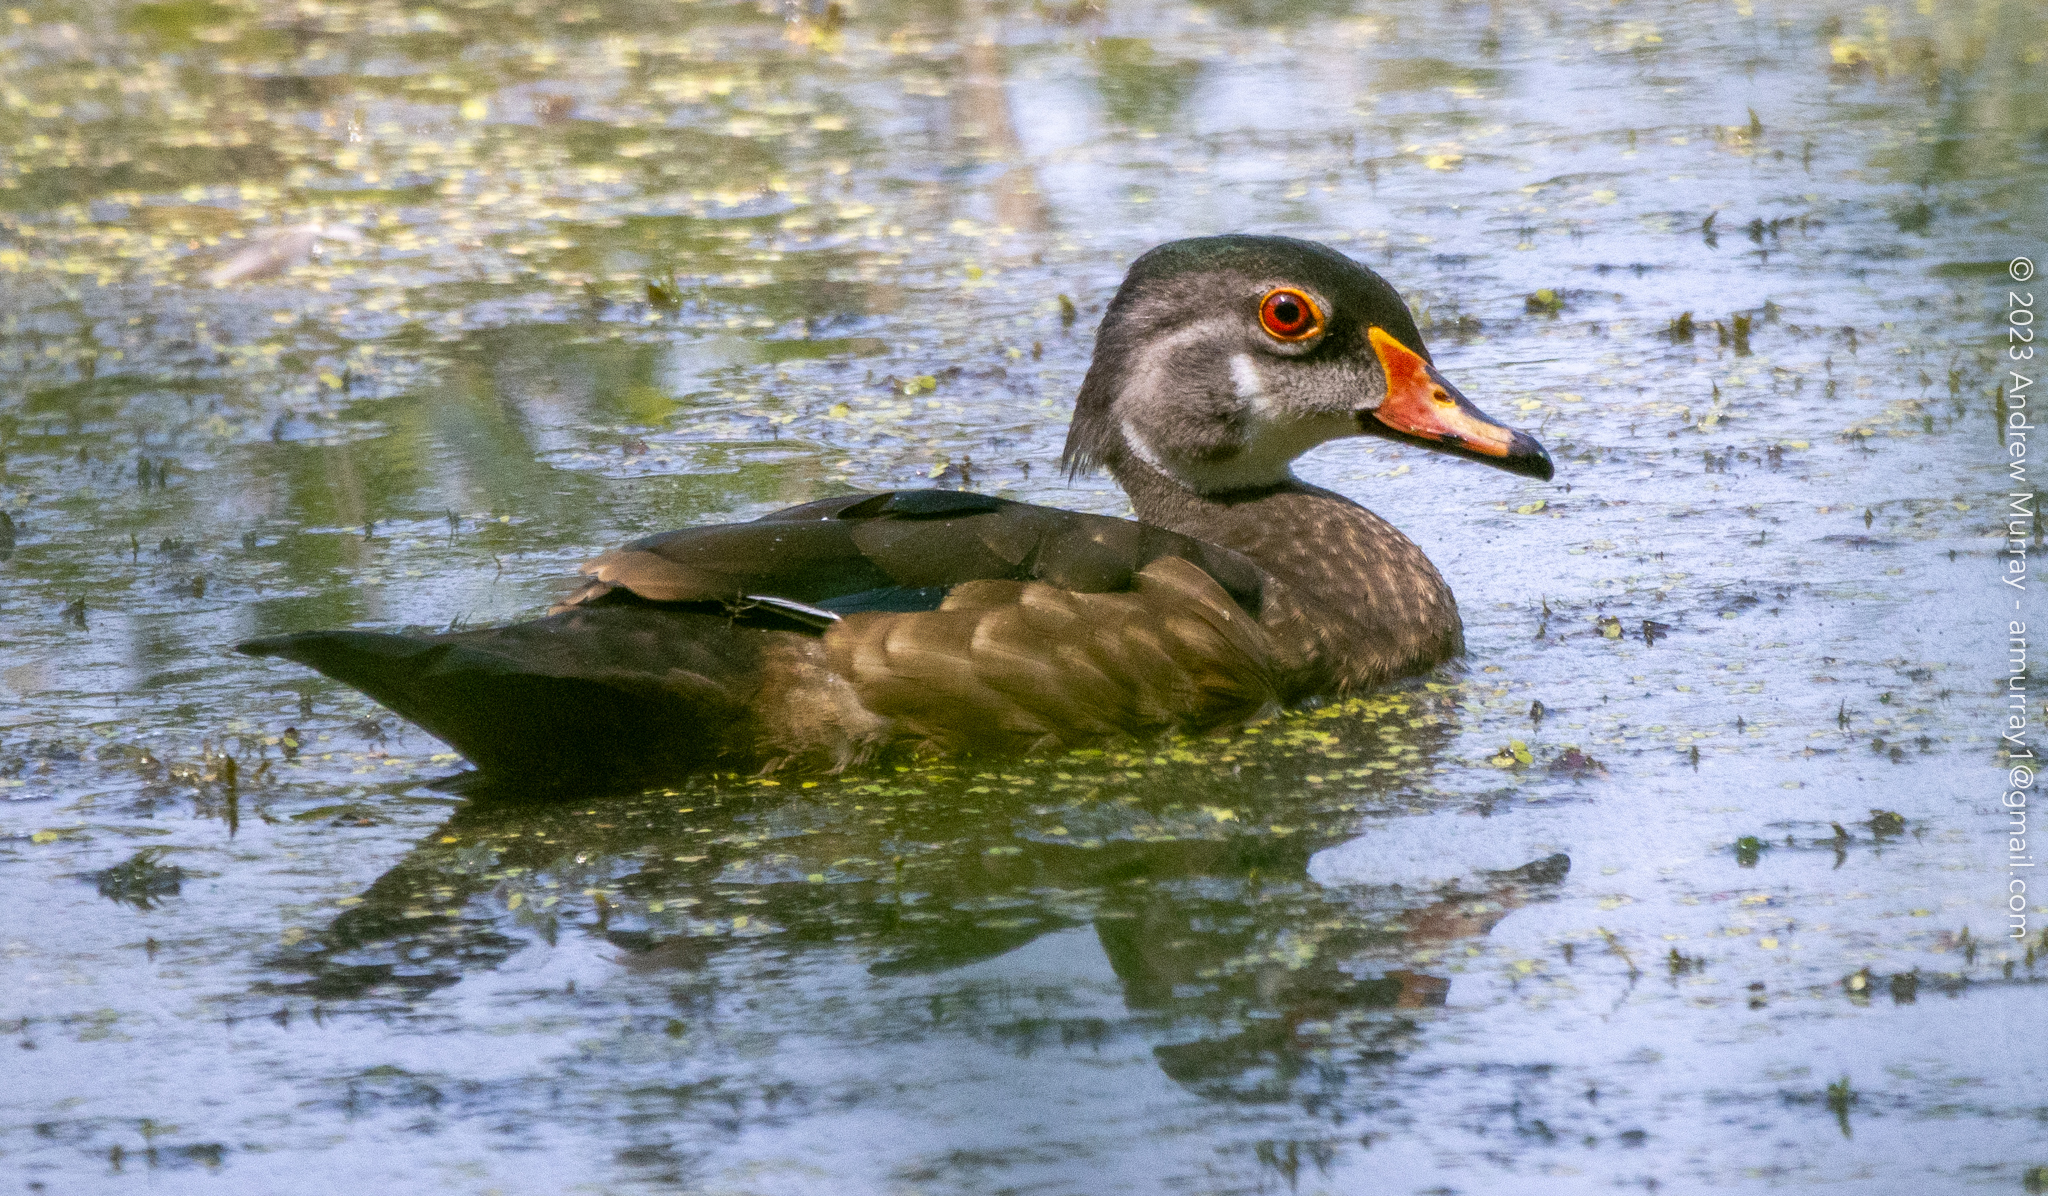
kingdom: Animalia
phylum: Chordata
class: Aves
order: Anseriformes
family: Anatidae
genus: Aix
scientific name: Aix sponsa
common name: Wood duck
